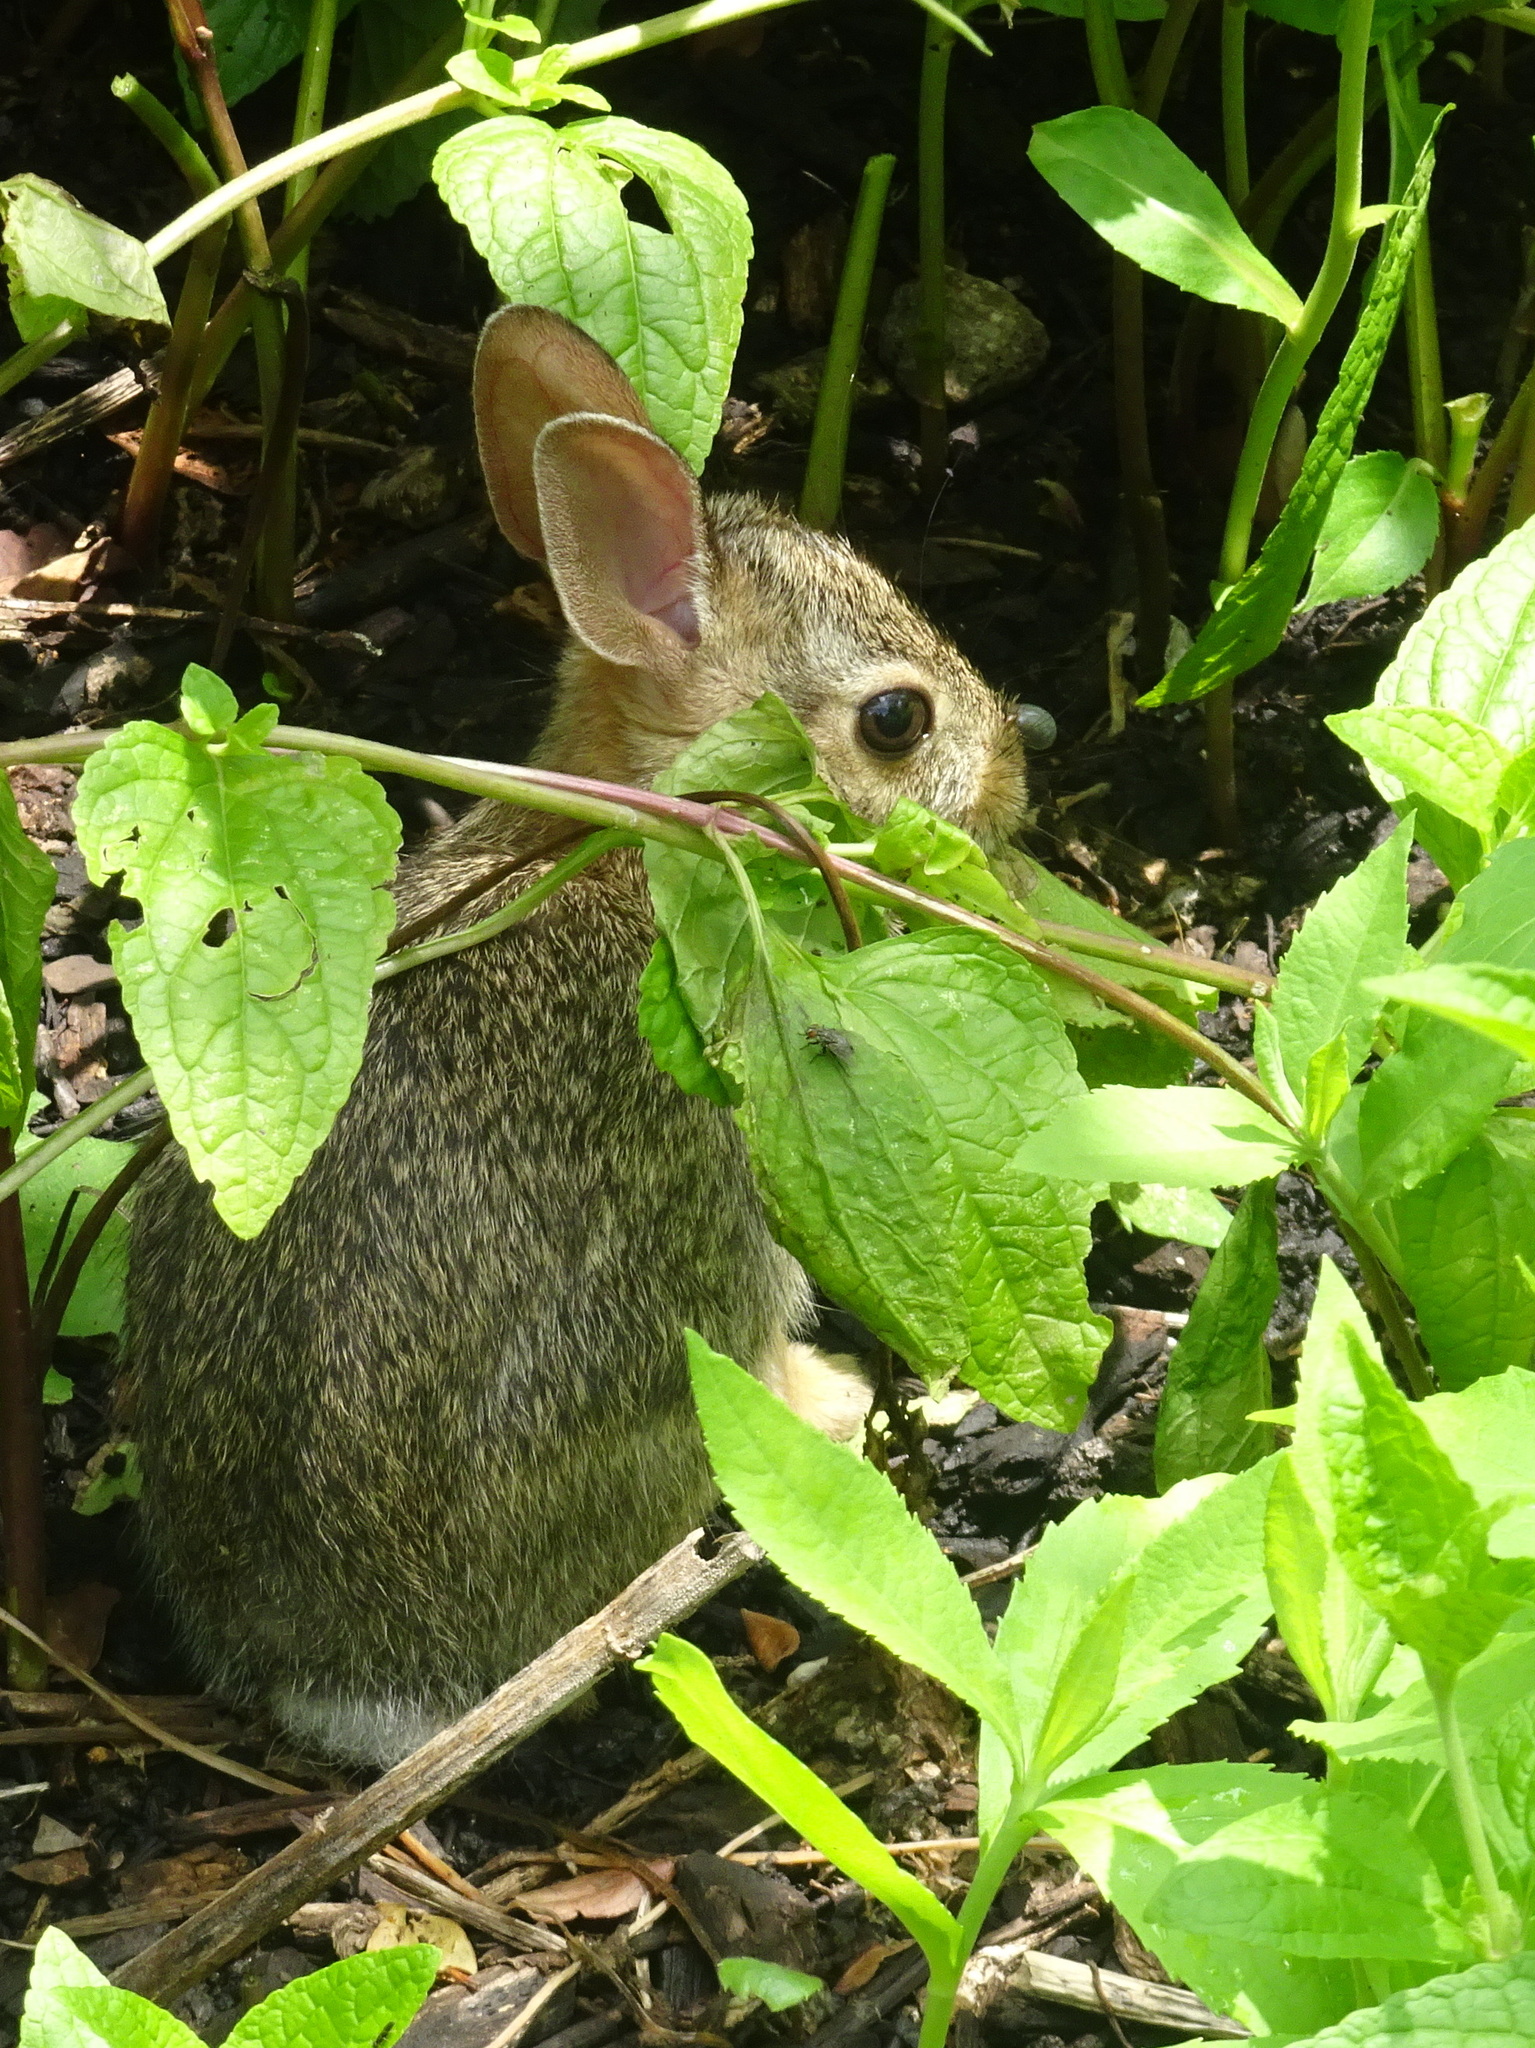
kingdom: Animalia
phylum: Chordata
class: Mammalia
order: Lagomorpha
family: Leporidae
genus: Sylvilagus
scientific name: Sylvilagus floridanus
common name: Eastern cottontail
